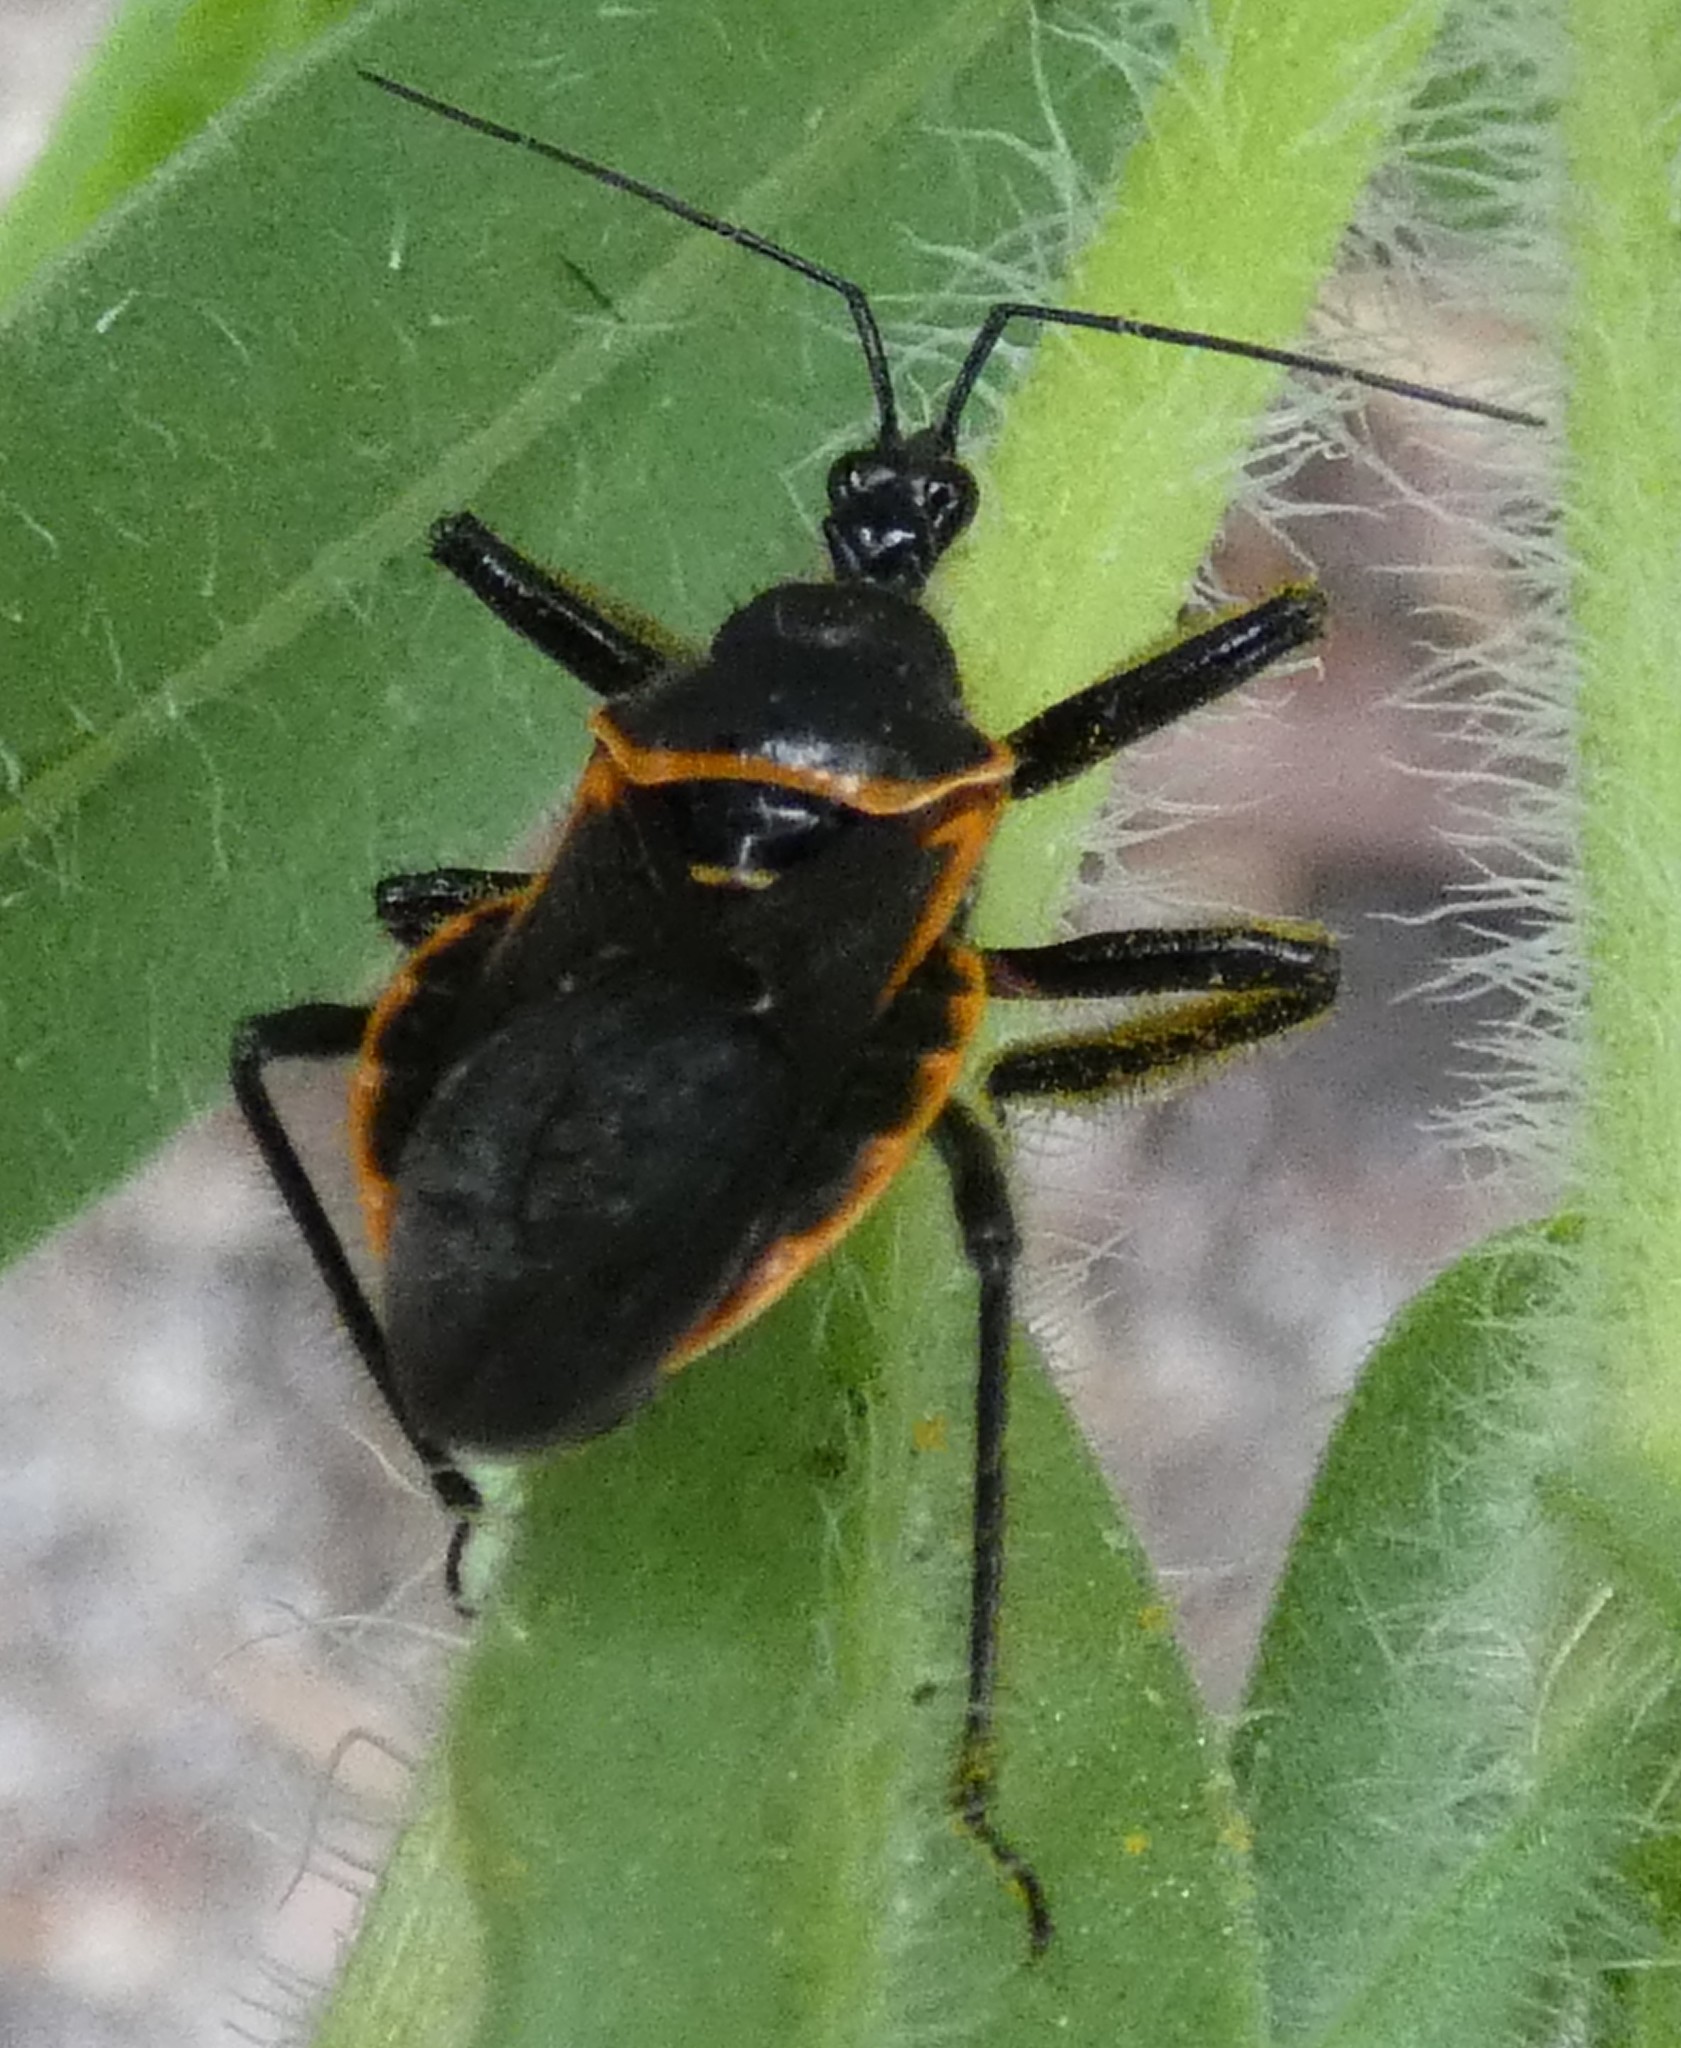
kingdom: Animalia
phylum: Arthropoda
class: Insecta
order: Hemiptera
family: Reduviidae
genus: Apiomerus
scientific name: Apiomerus crassipes
